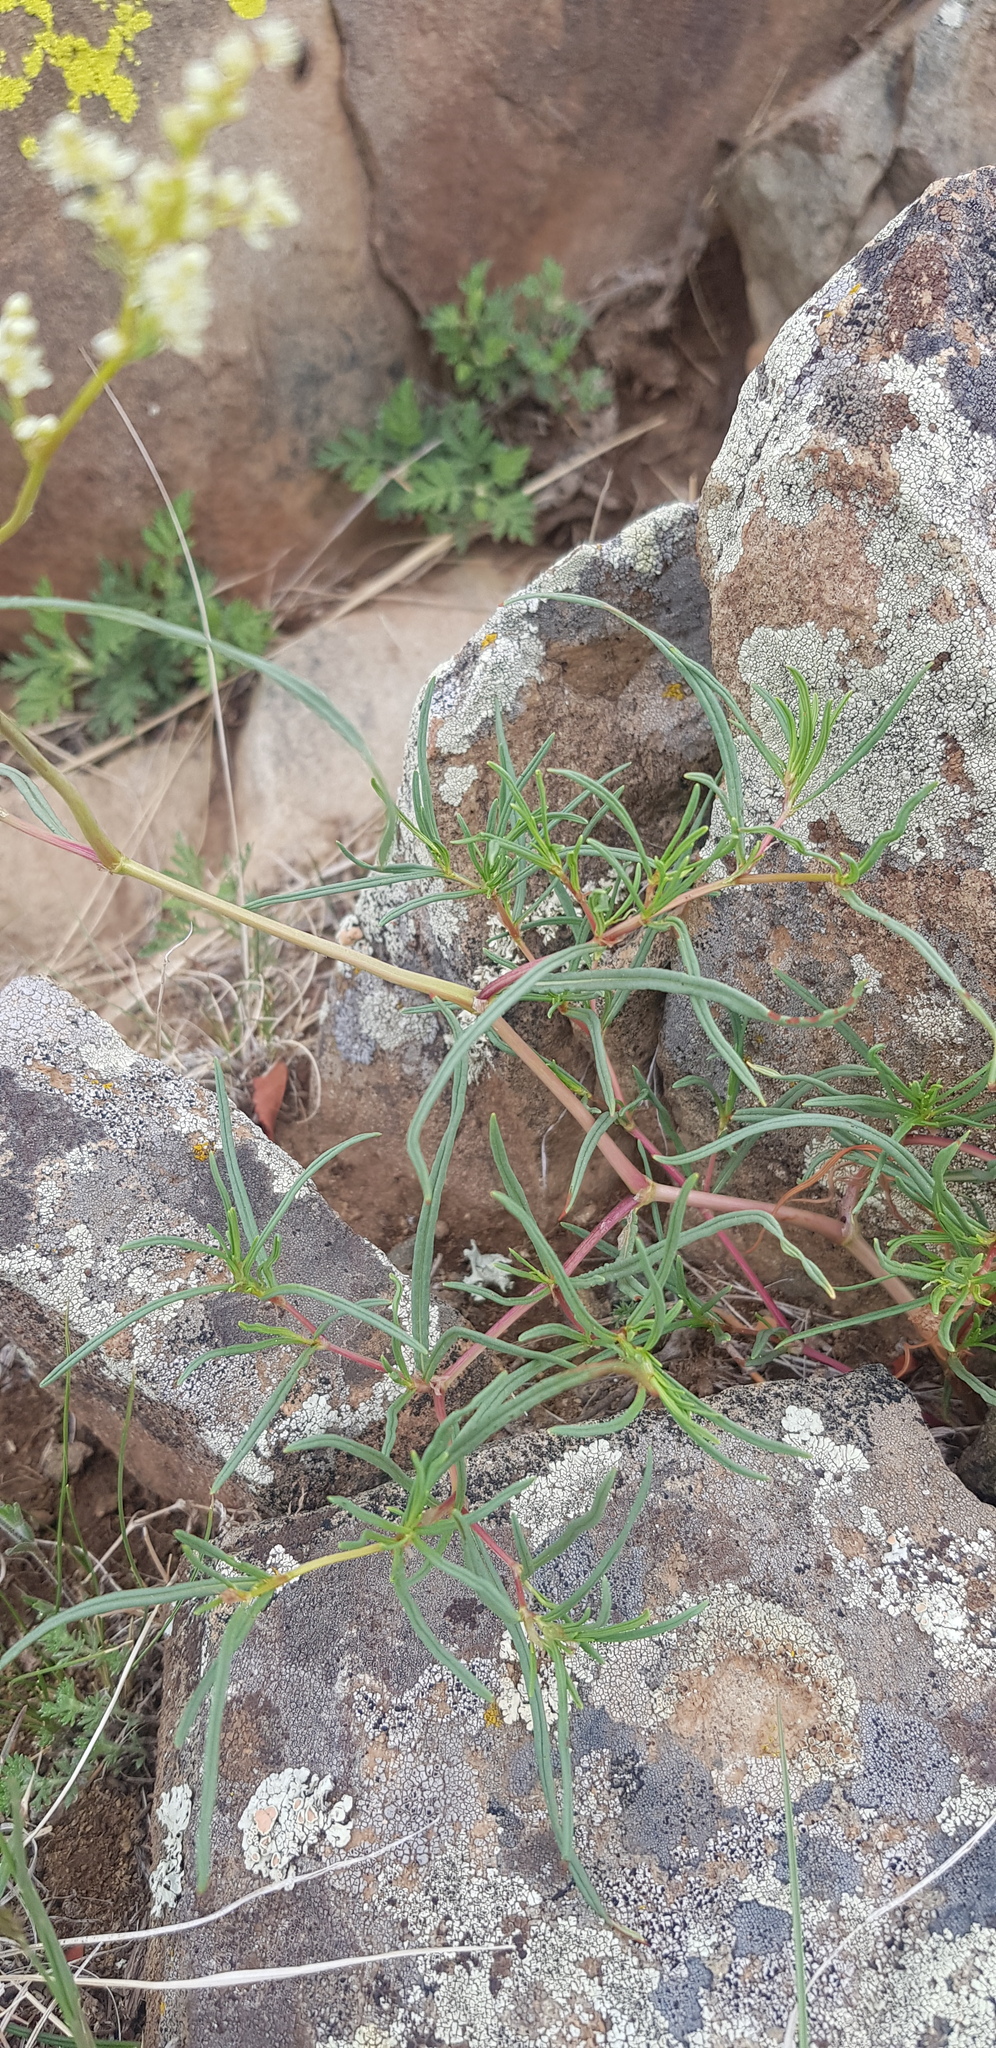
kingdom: Plantae
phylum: Tracheophyta
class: Magnoliopsida
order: Caryophyllales
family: Polygonaceae
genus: Persicaria
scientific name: Persicaria angustifolia
